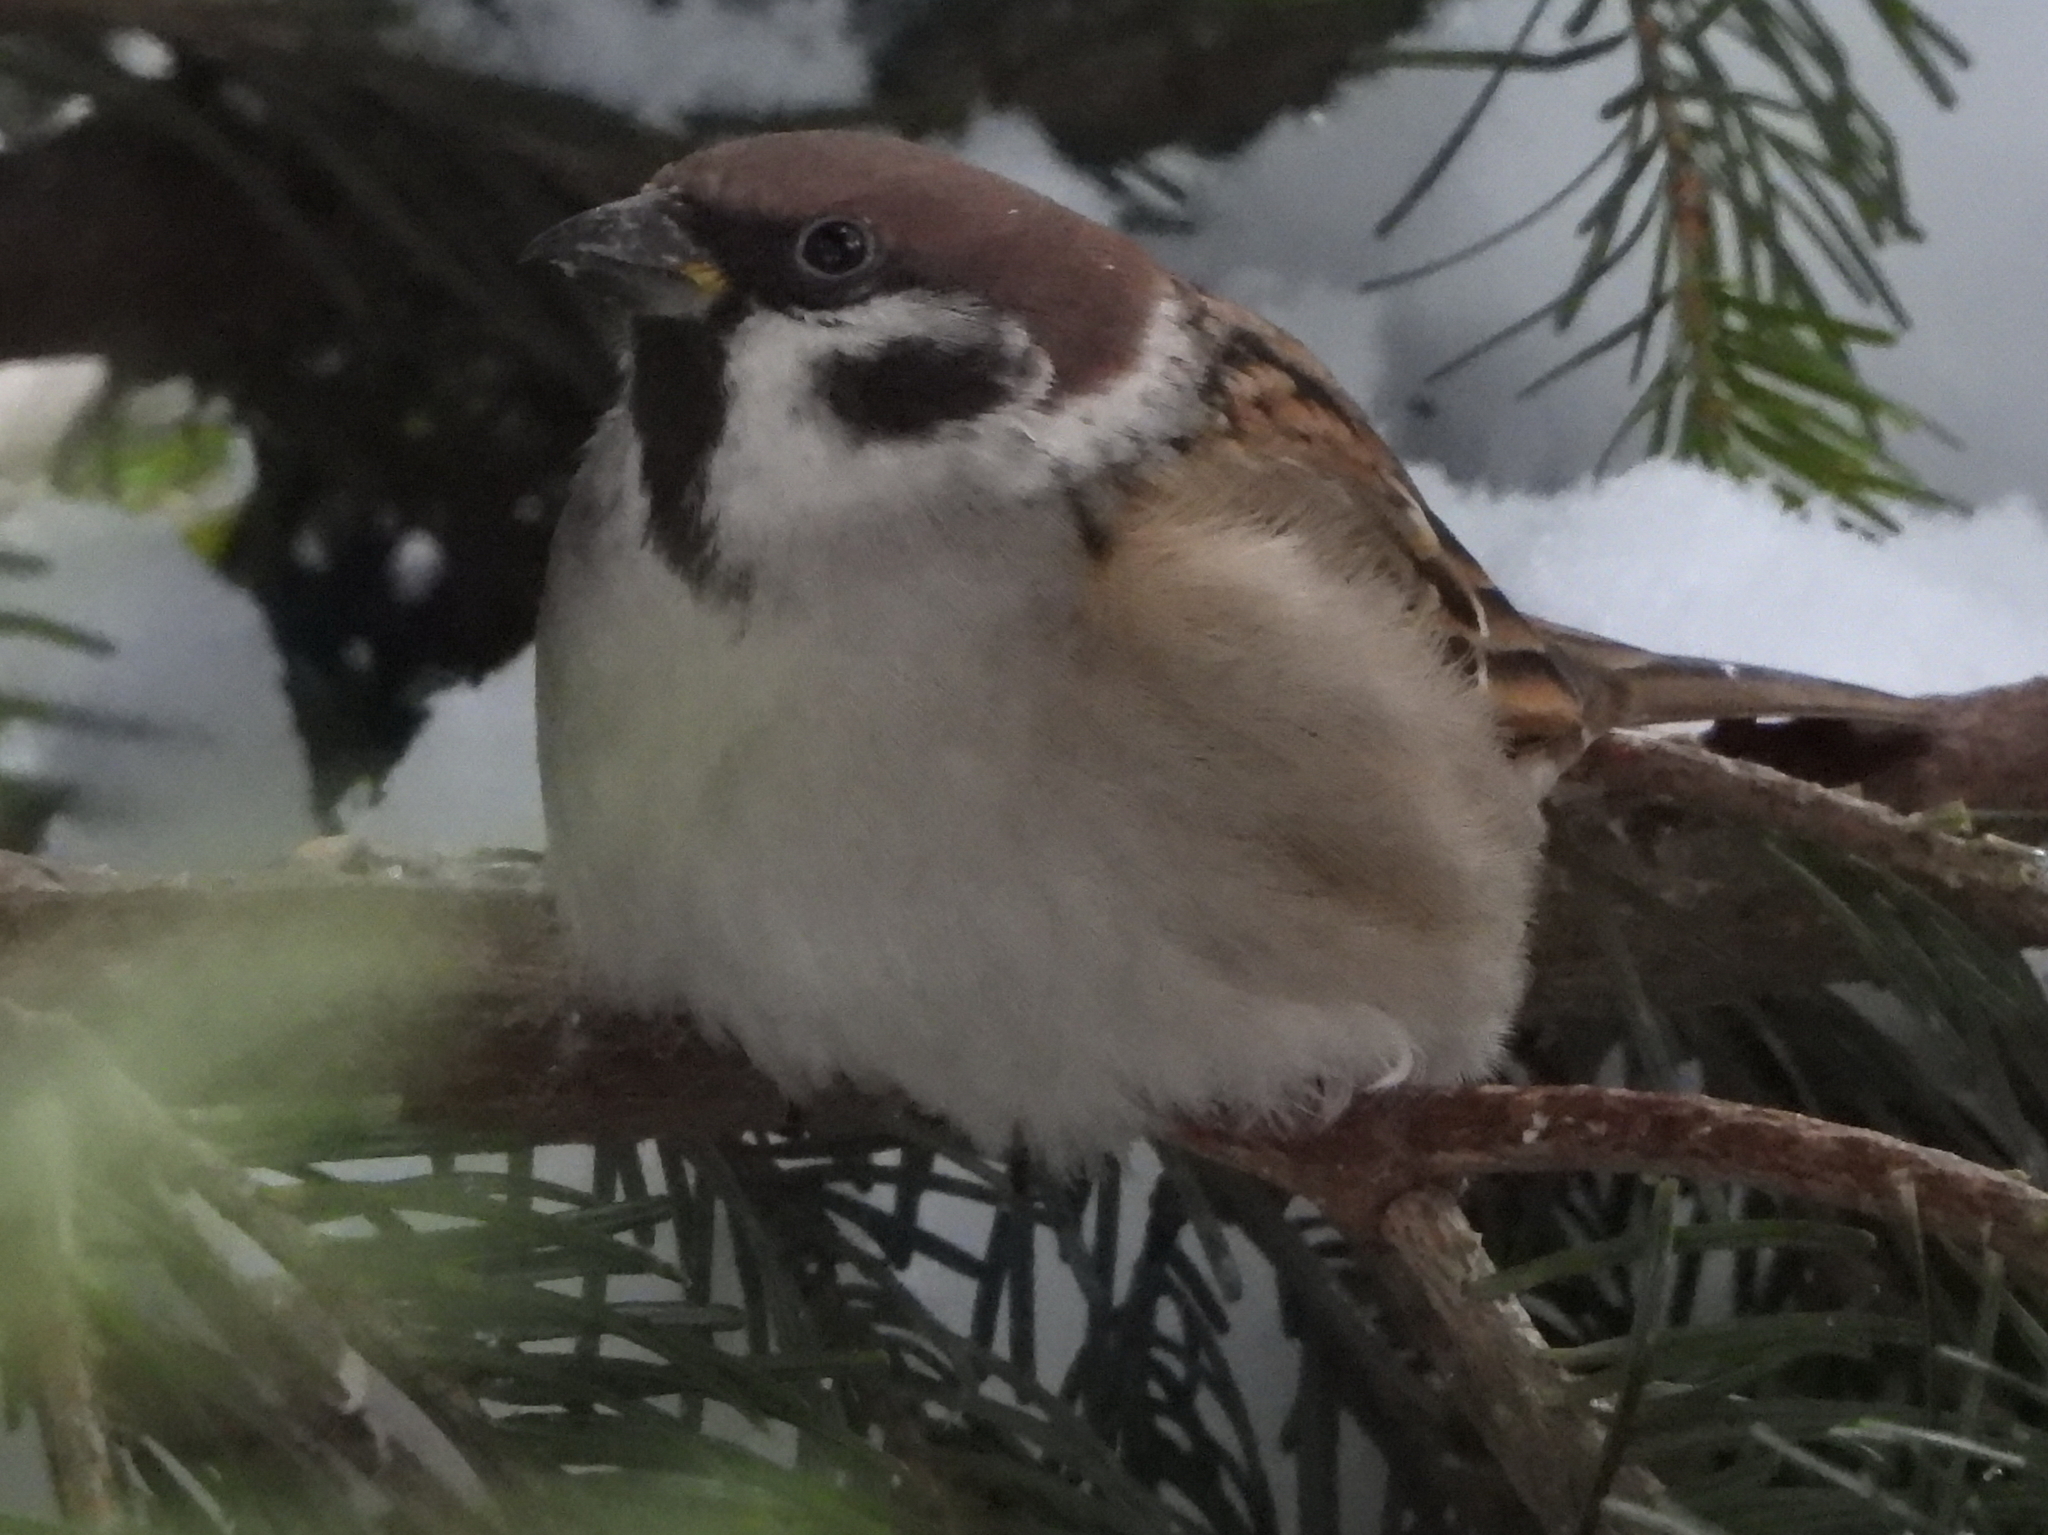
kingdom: Animalia
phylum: Chordata
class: Aves
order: Passeriformes
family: Passeridae
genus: Passer
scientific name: Passer montanus
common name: Eurasian tree sparrow
